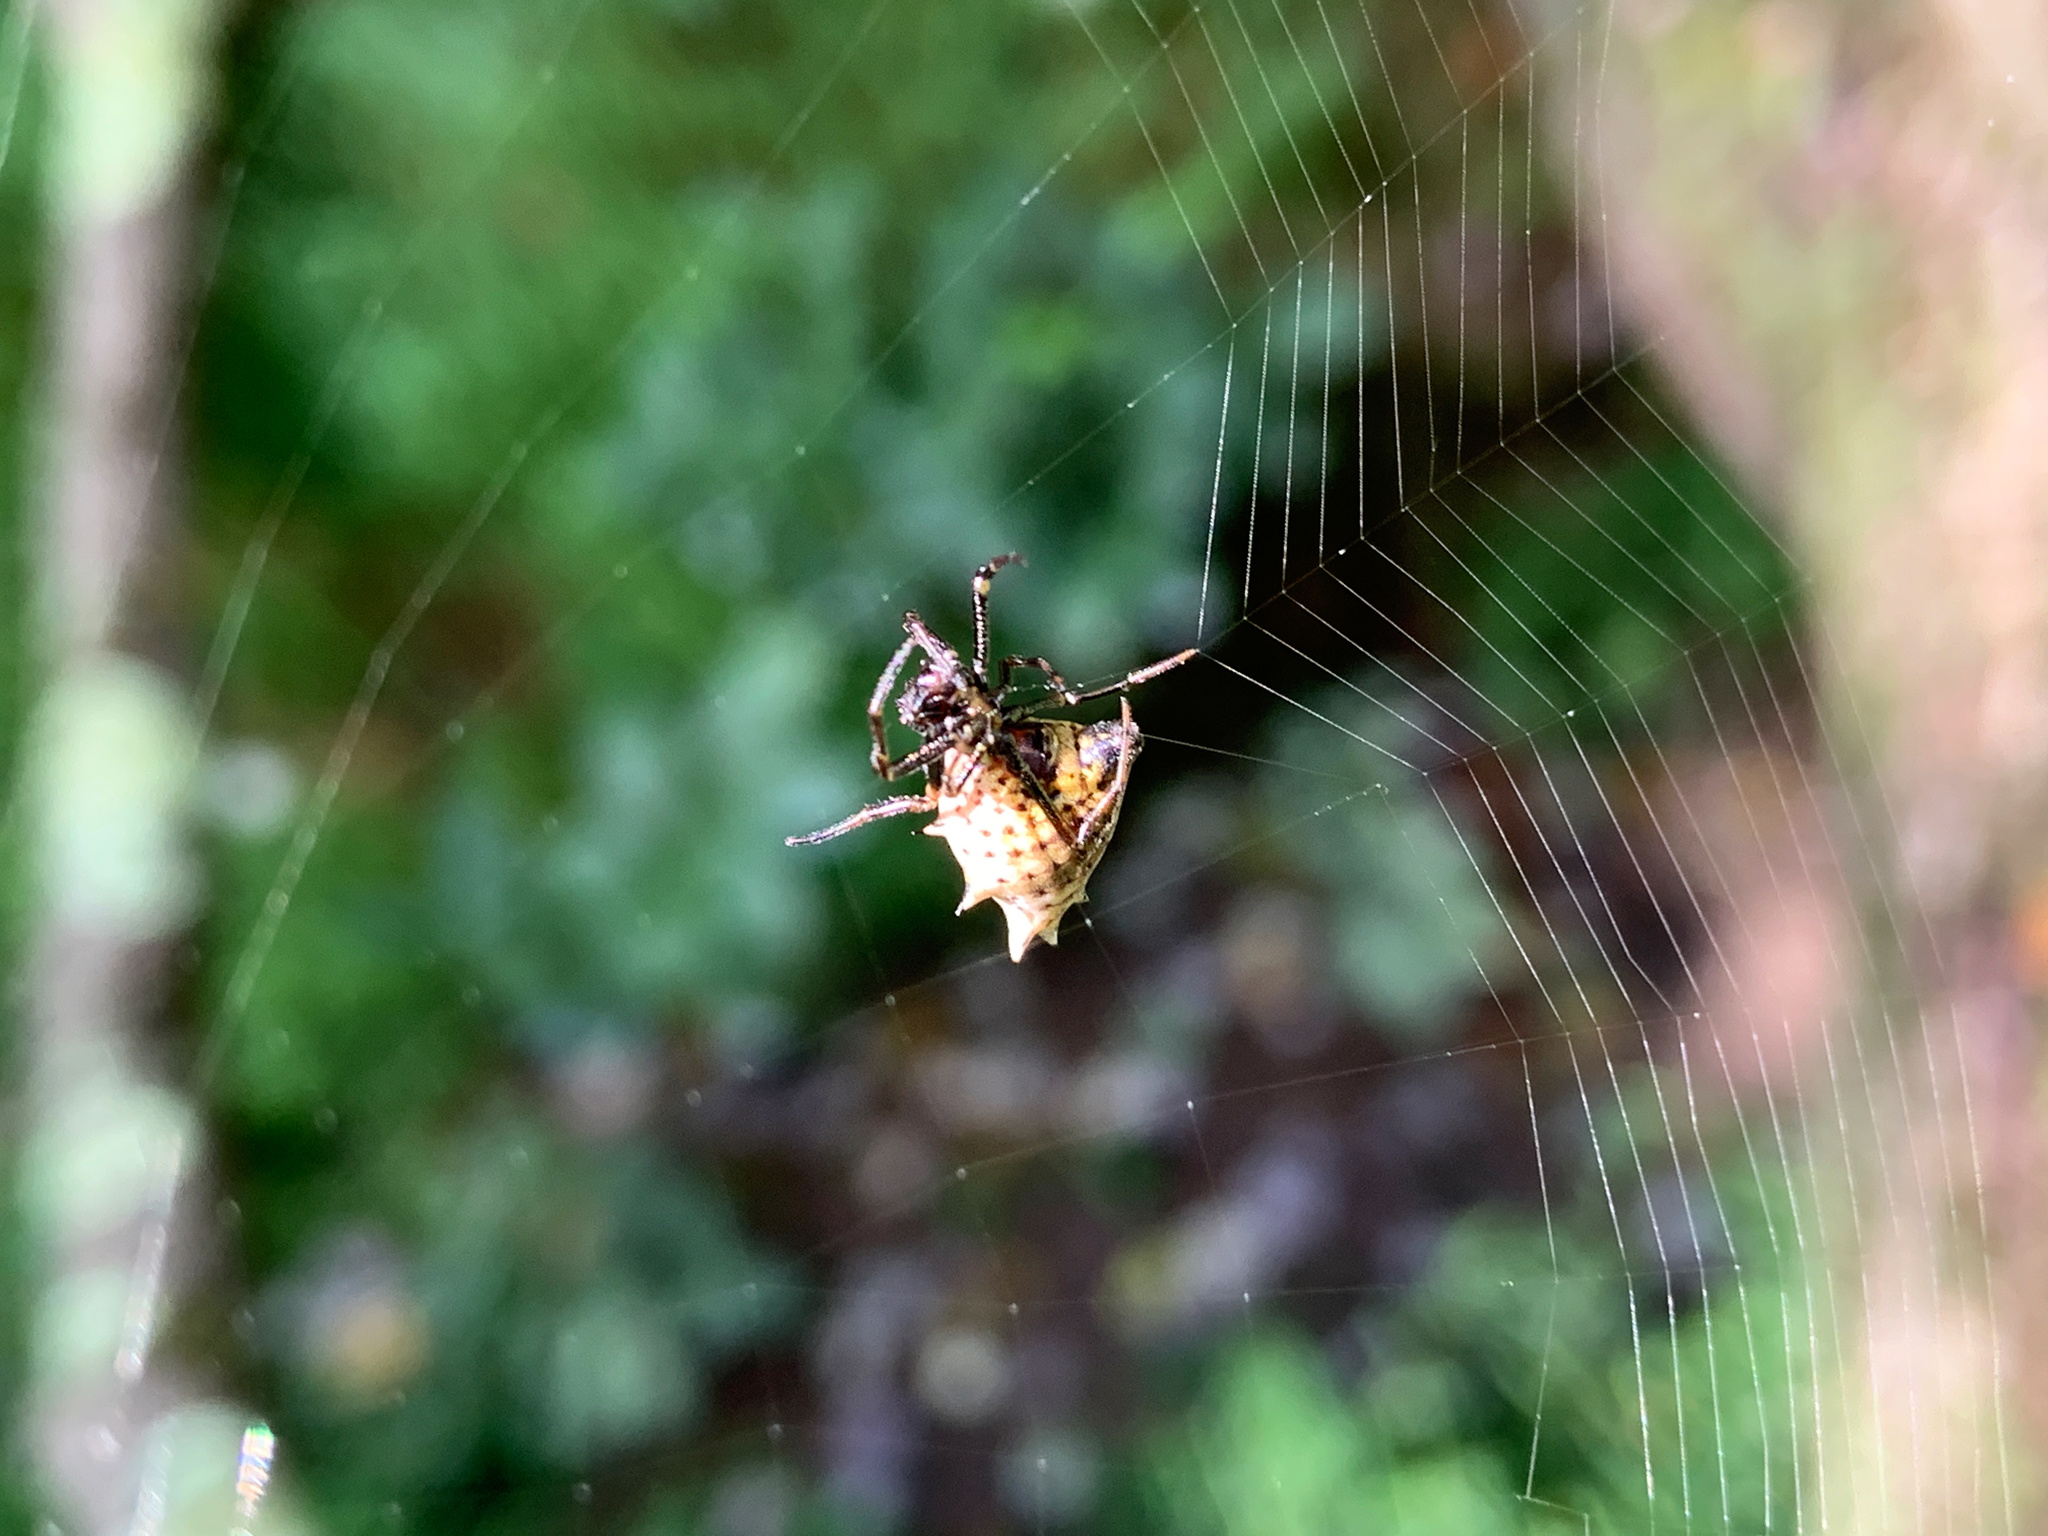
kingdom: Animalia
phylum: Arthropoda
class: Arachnida
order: Araneae
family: Araneidae
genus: Micrathena
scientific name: Micrathena gracilis
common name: Orb weavers
